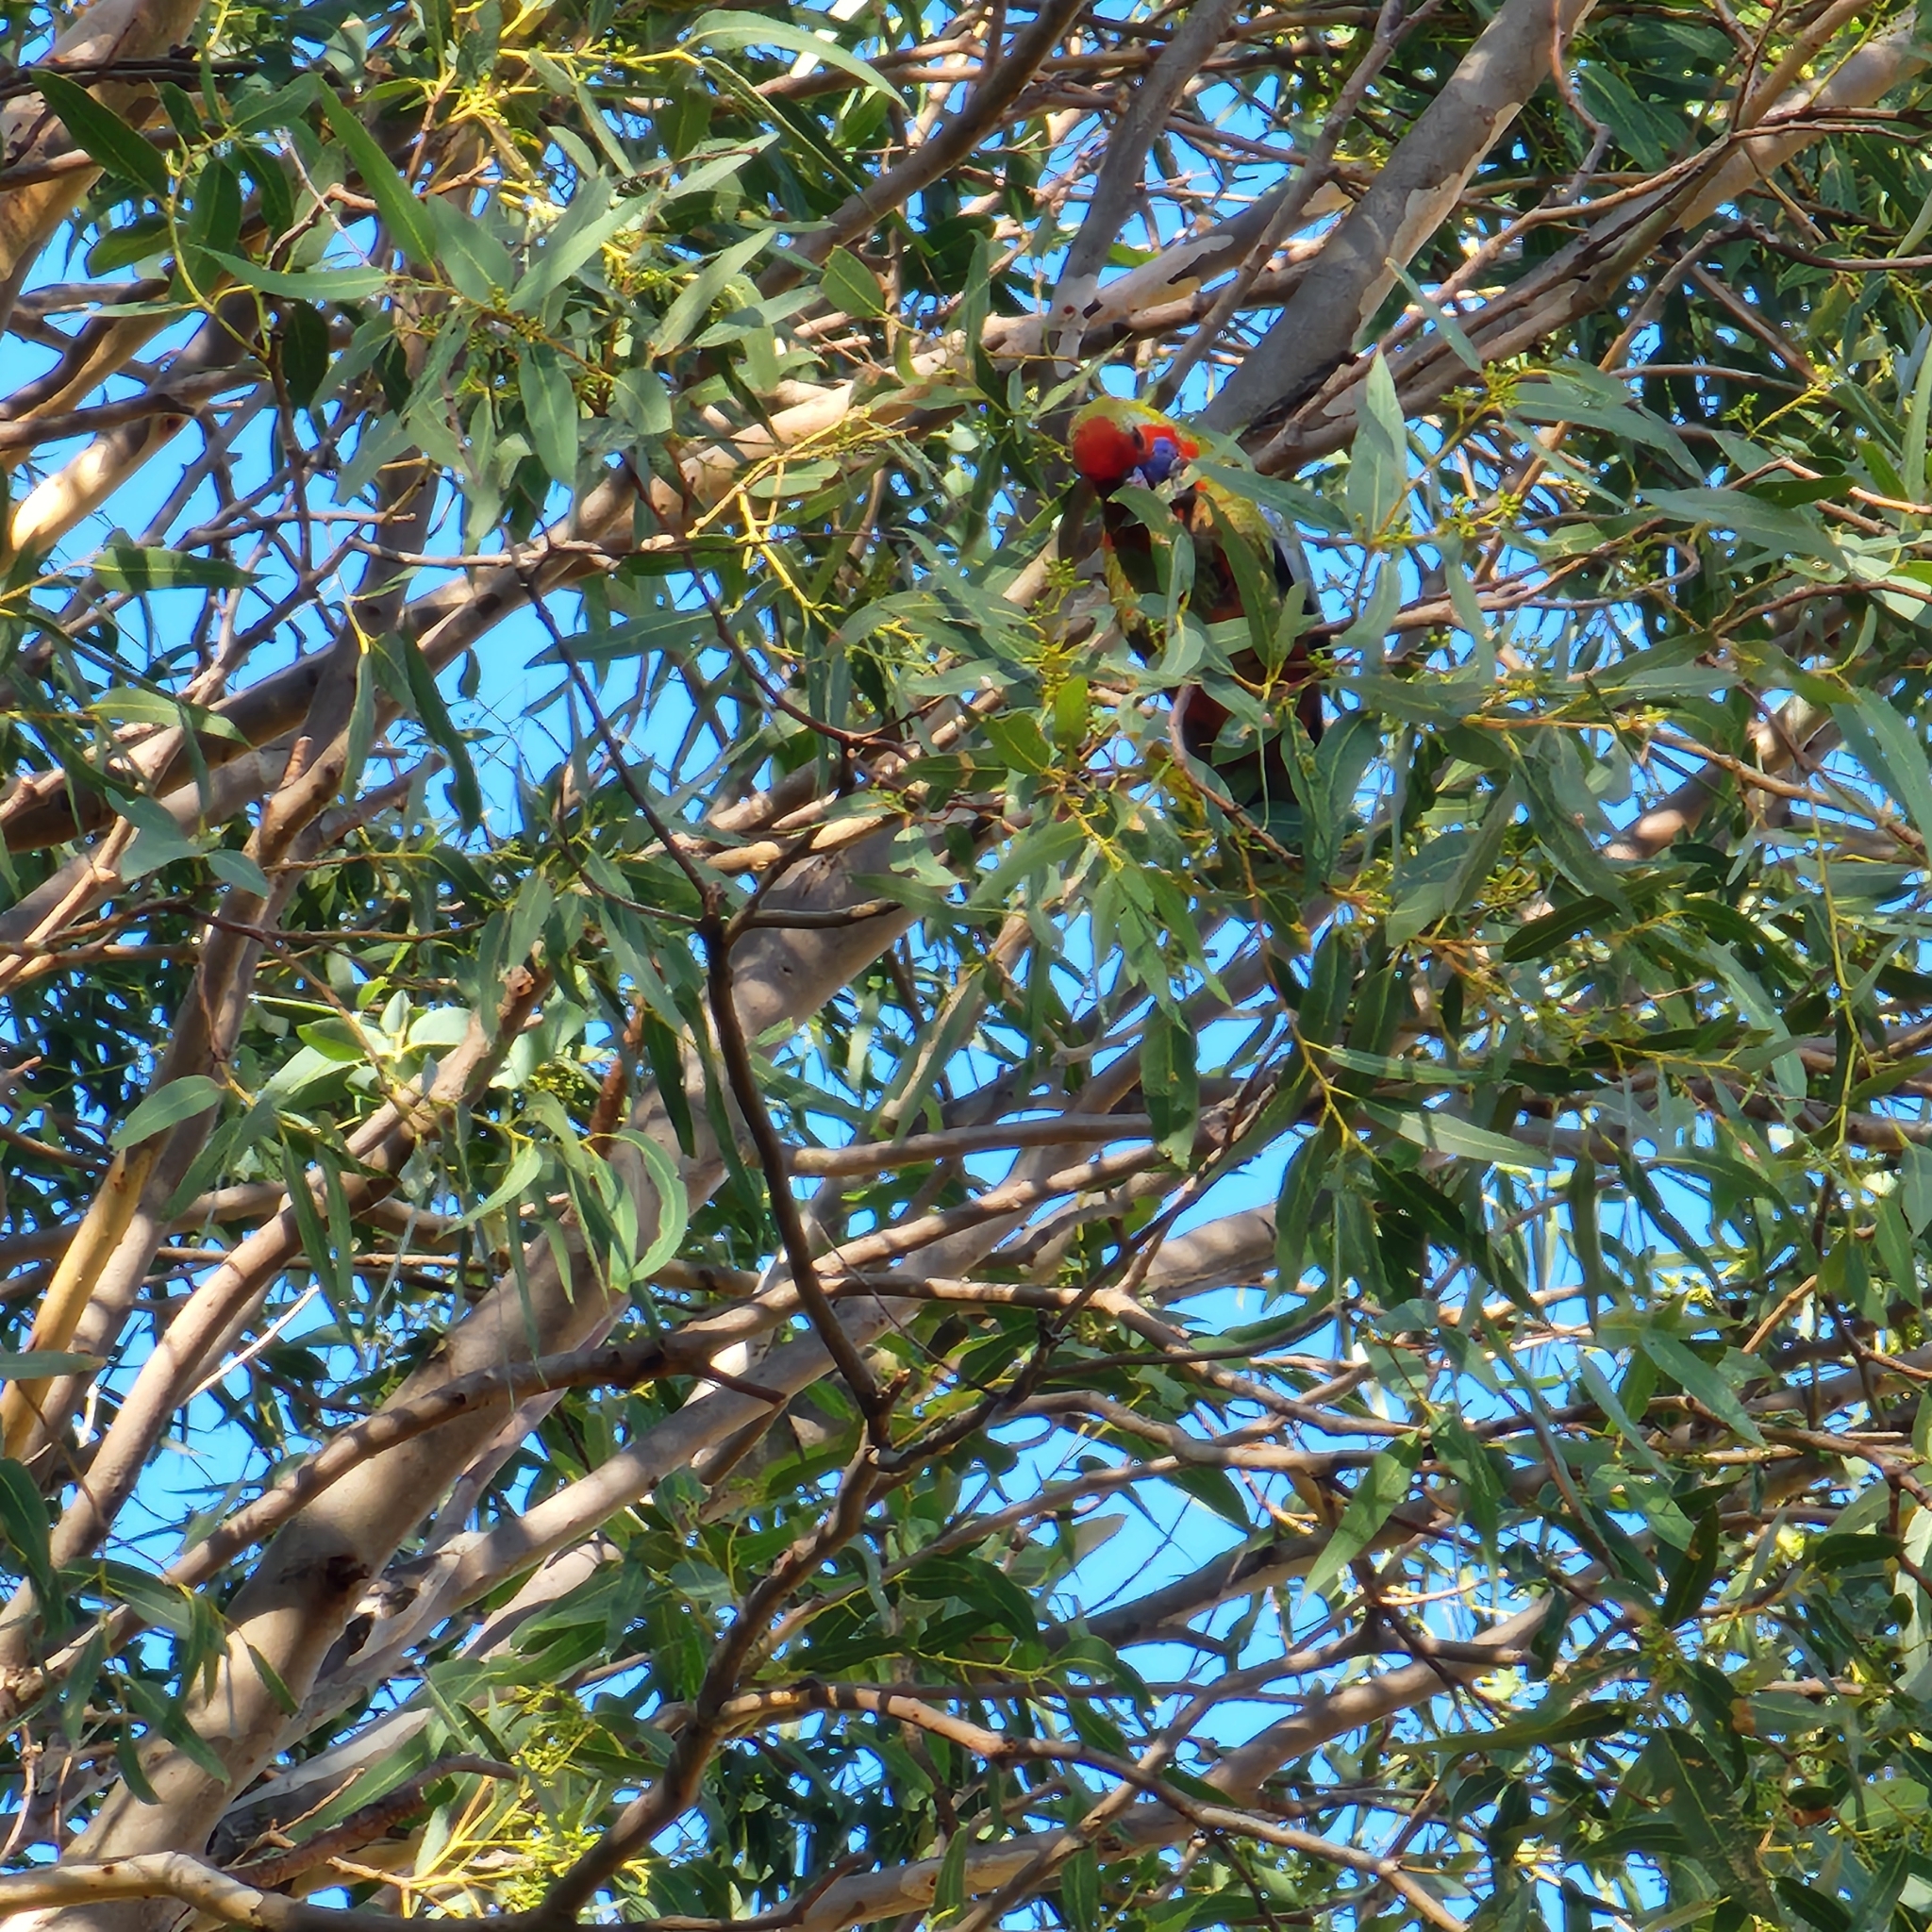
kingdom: Animalia
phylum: Chordata
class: Aves
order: Psittaciformes
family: Psittacidae
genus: Platycercus
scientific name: Platycercus elegans
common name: Crimson rosella
